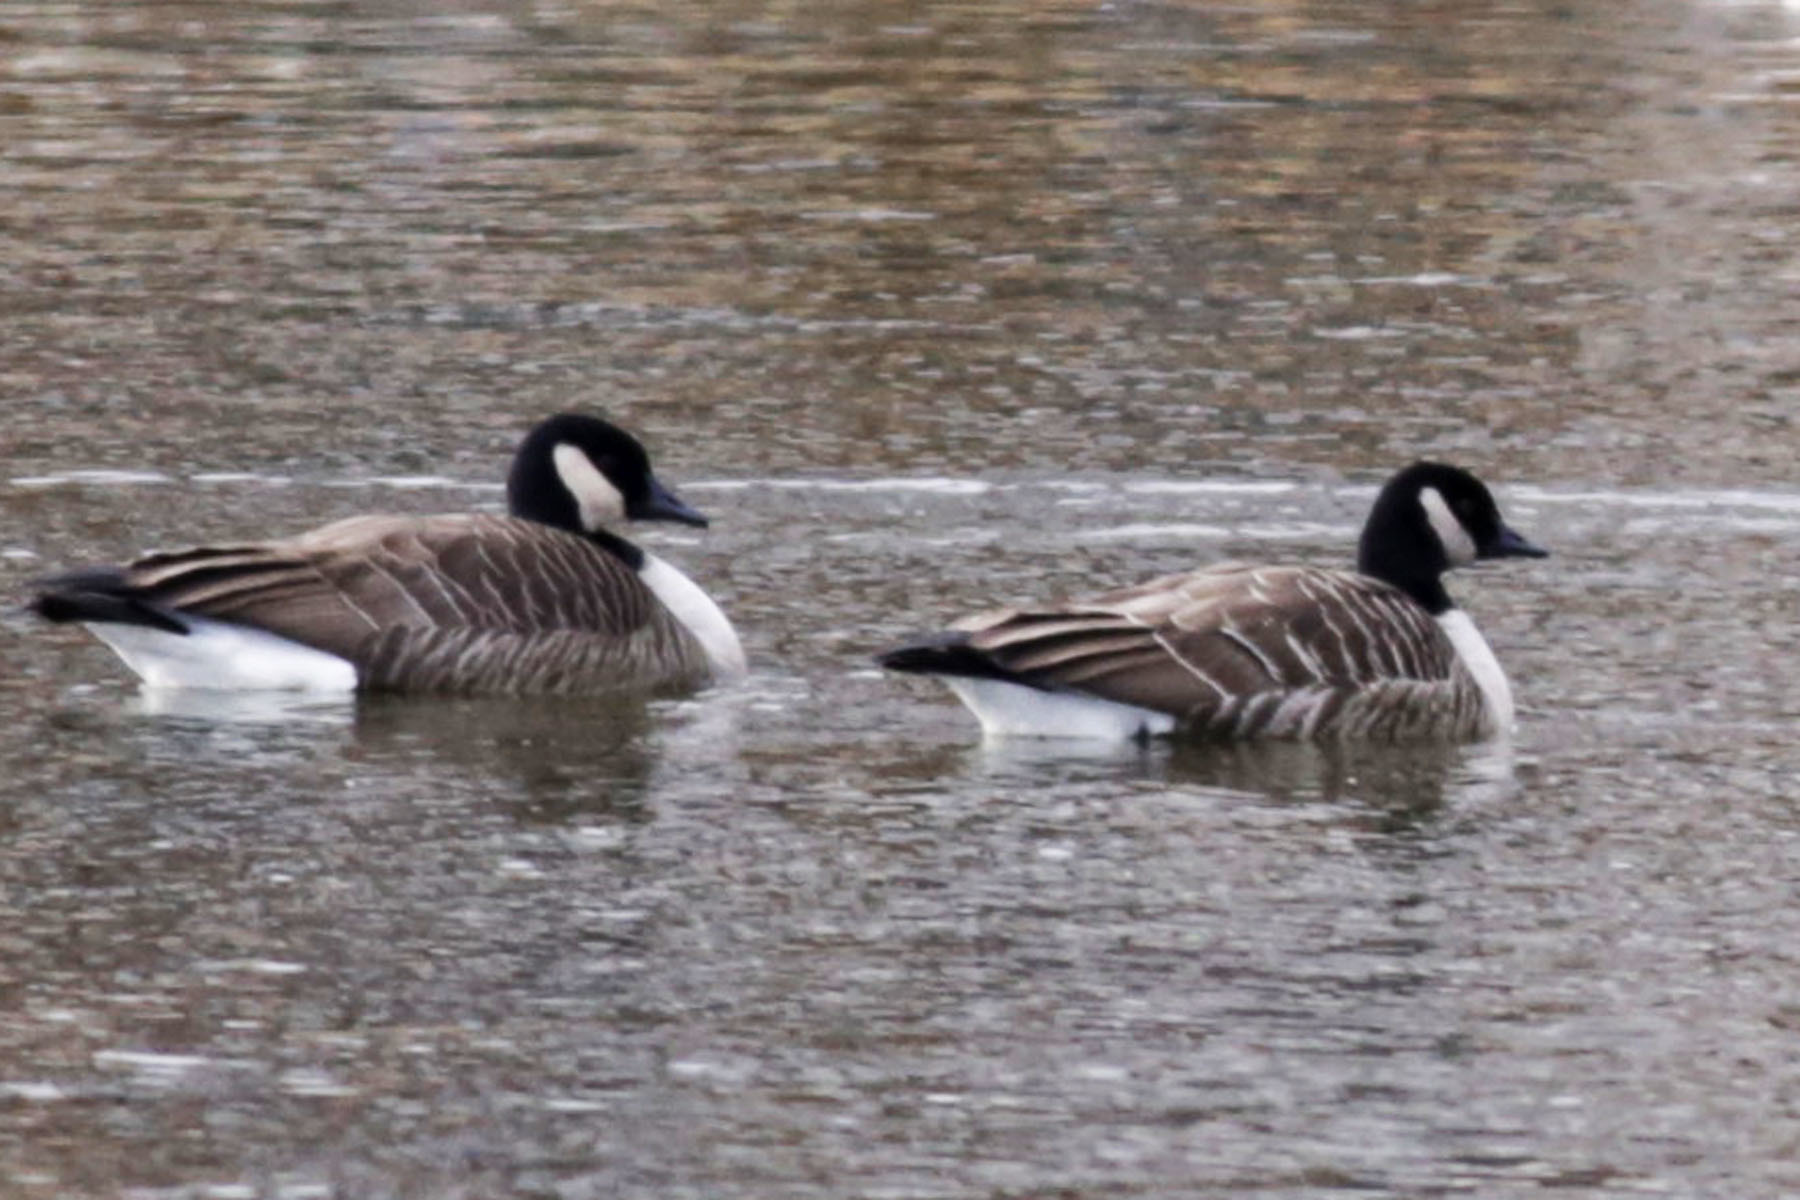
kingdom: Animalia
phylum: Chordata
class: Aves
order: Anseriformes
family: Anatidae
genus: Branta
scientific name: Branta canadensis
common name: Canada goose
